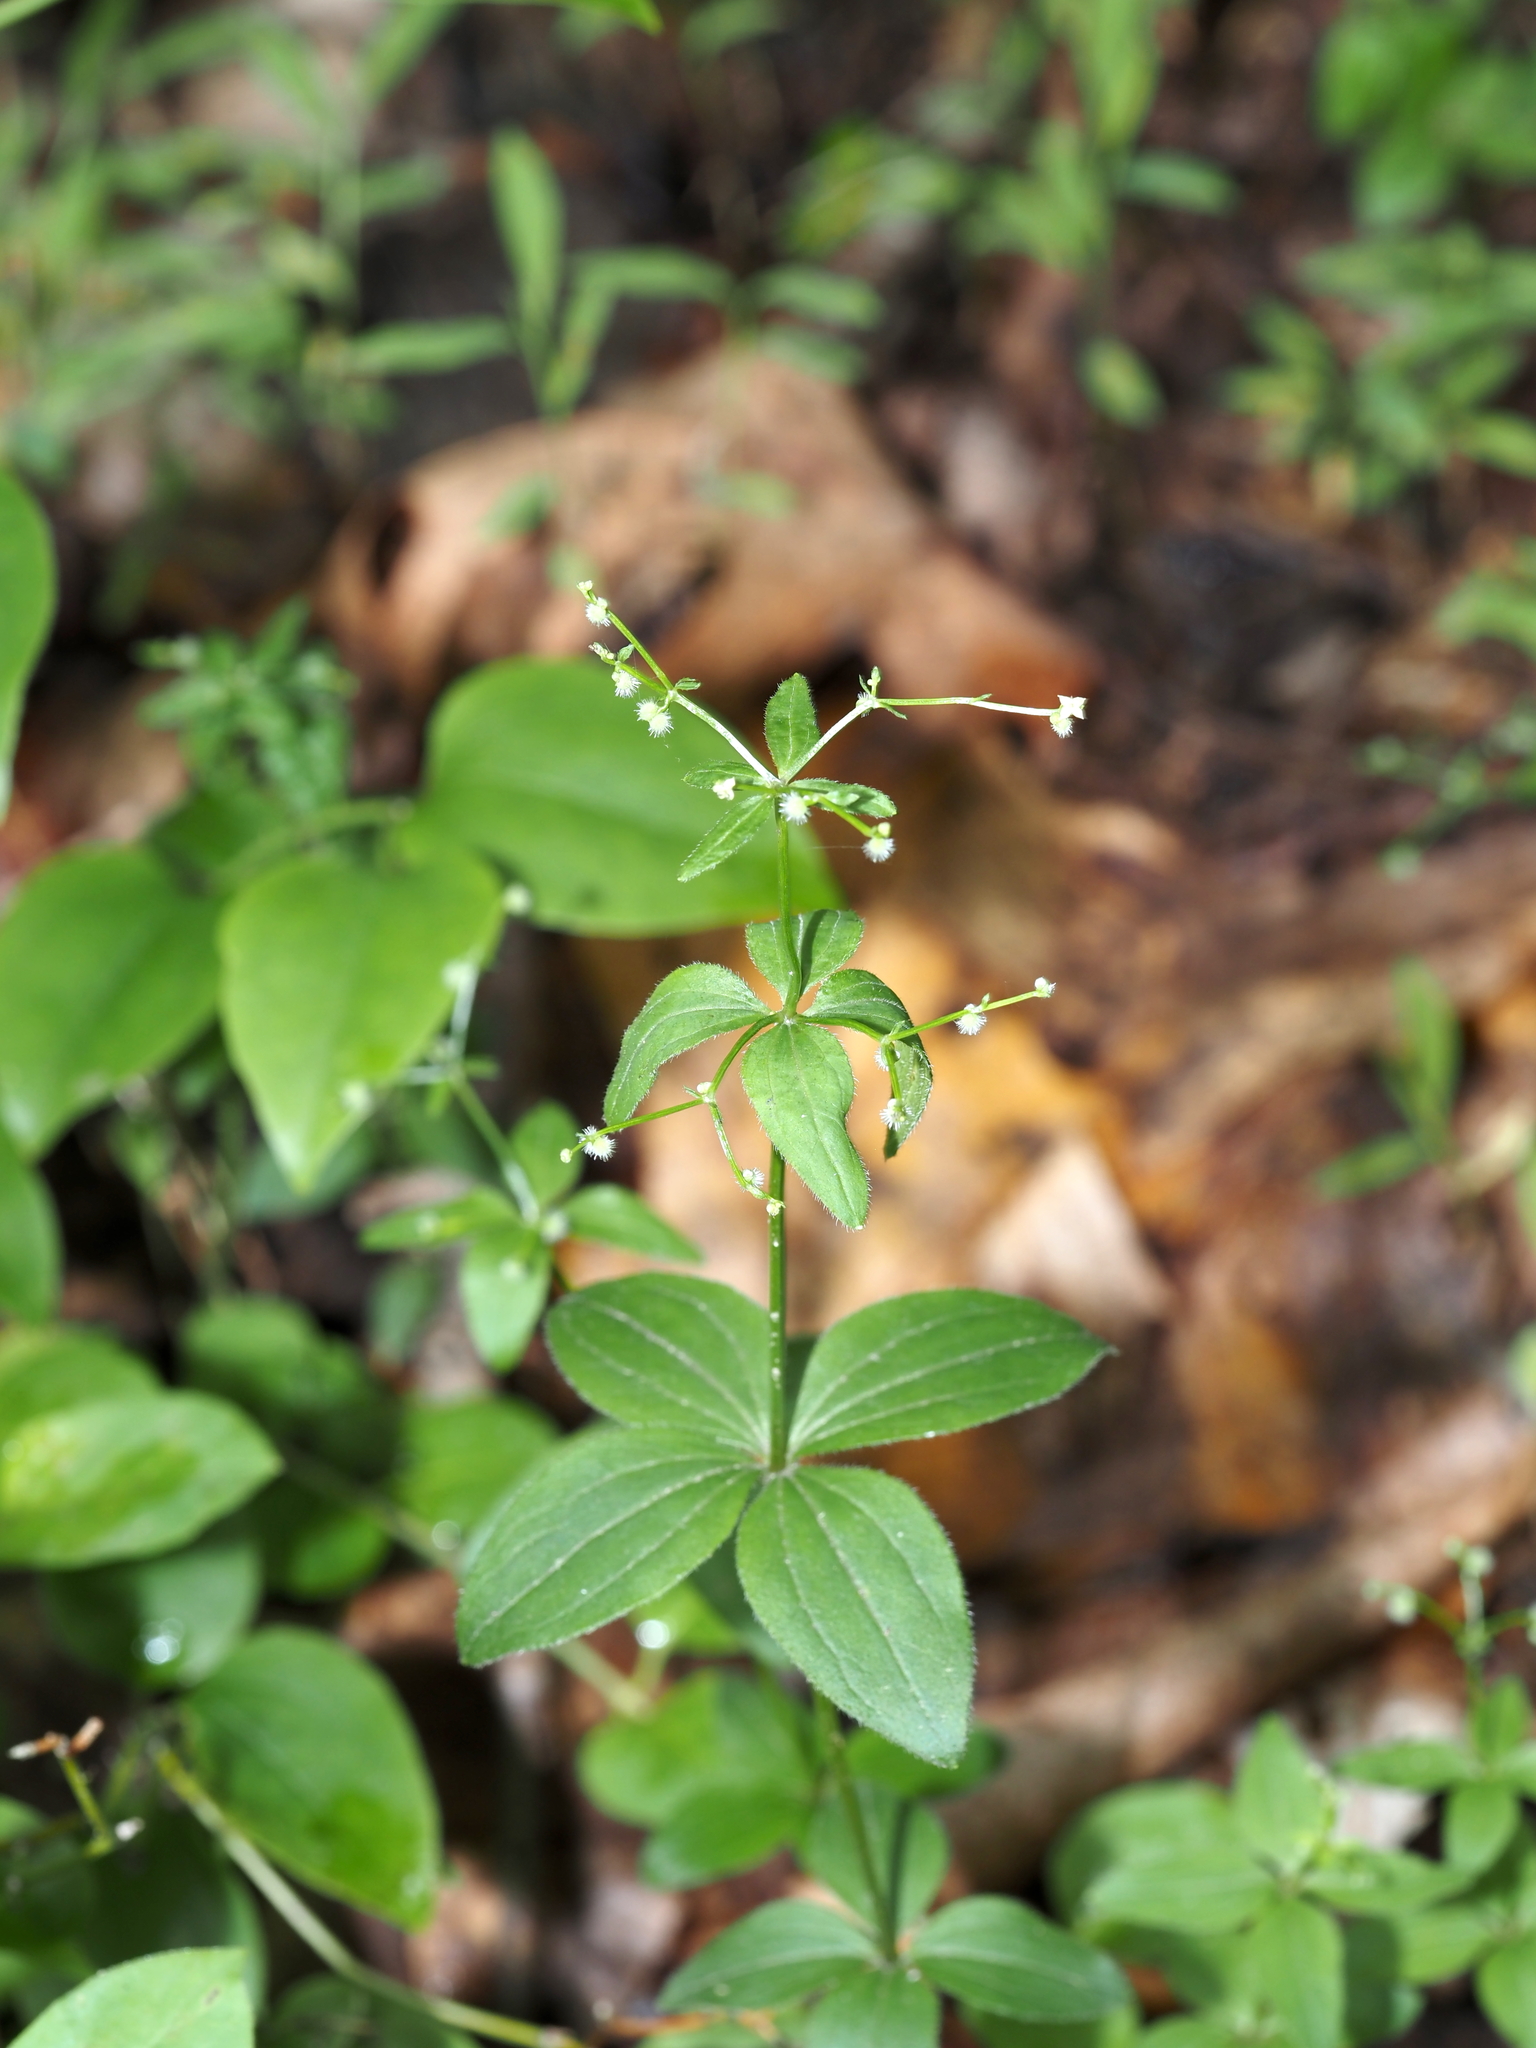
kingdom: Plantae
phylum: Tracheophyta
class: Magnoliopsida
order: Gentianales
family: Rubiaceae
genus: Galium
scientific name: Galium circaezans
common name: Forest bedstraw
